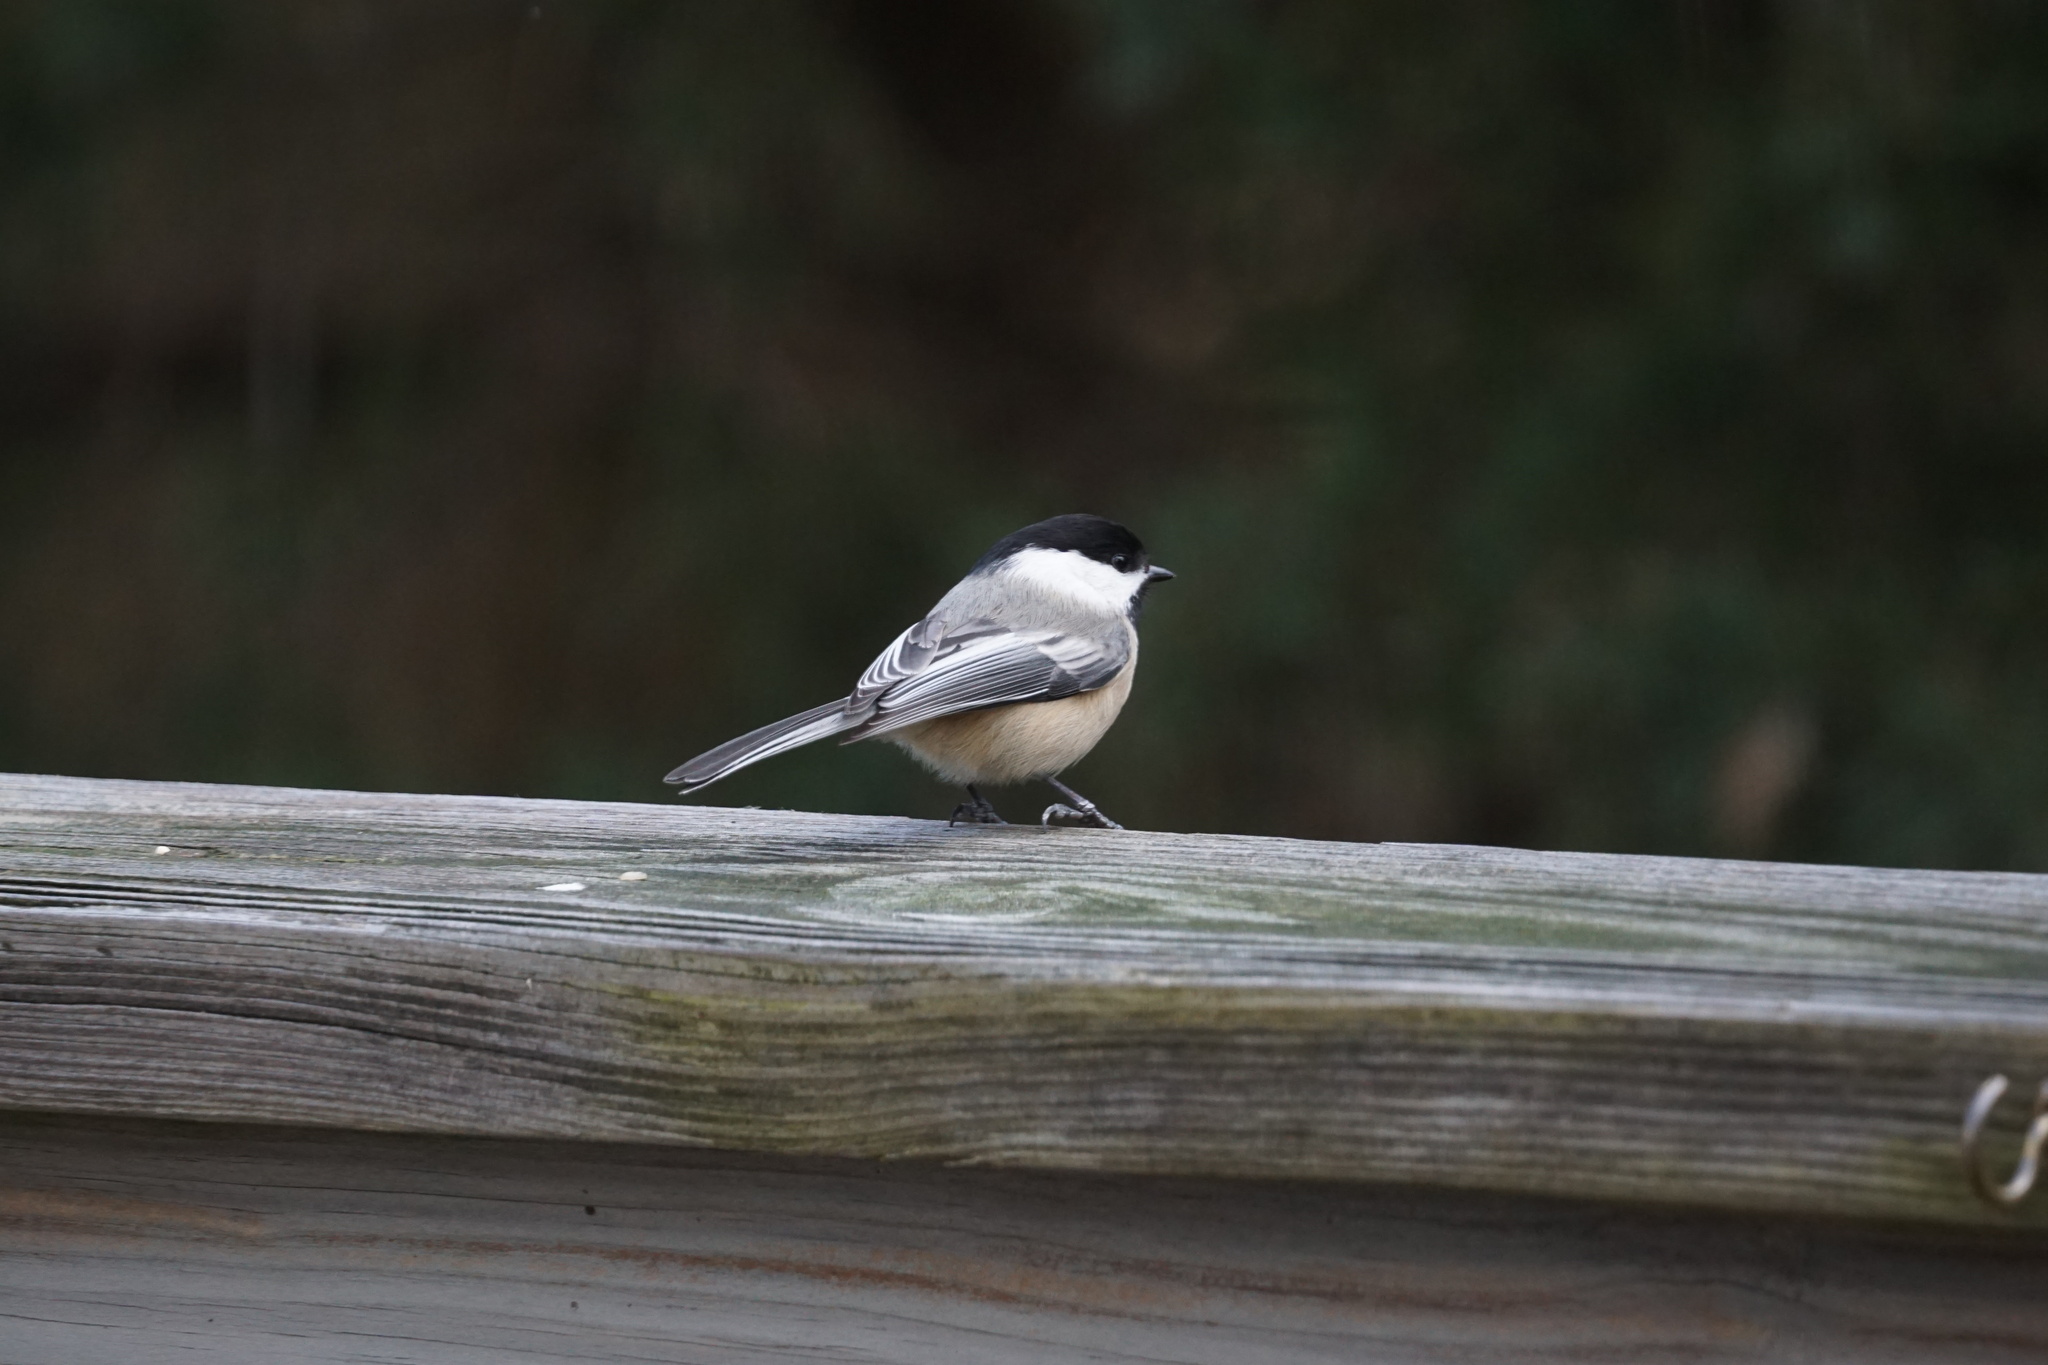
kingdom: Animalia
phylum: Chordata
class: Aves
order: Passeriformes
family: Paridae
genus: Poecile
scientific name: Poecile atricapillus
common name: Black-capped chickadee
